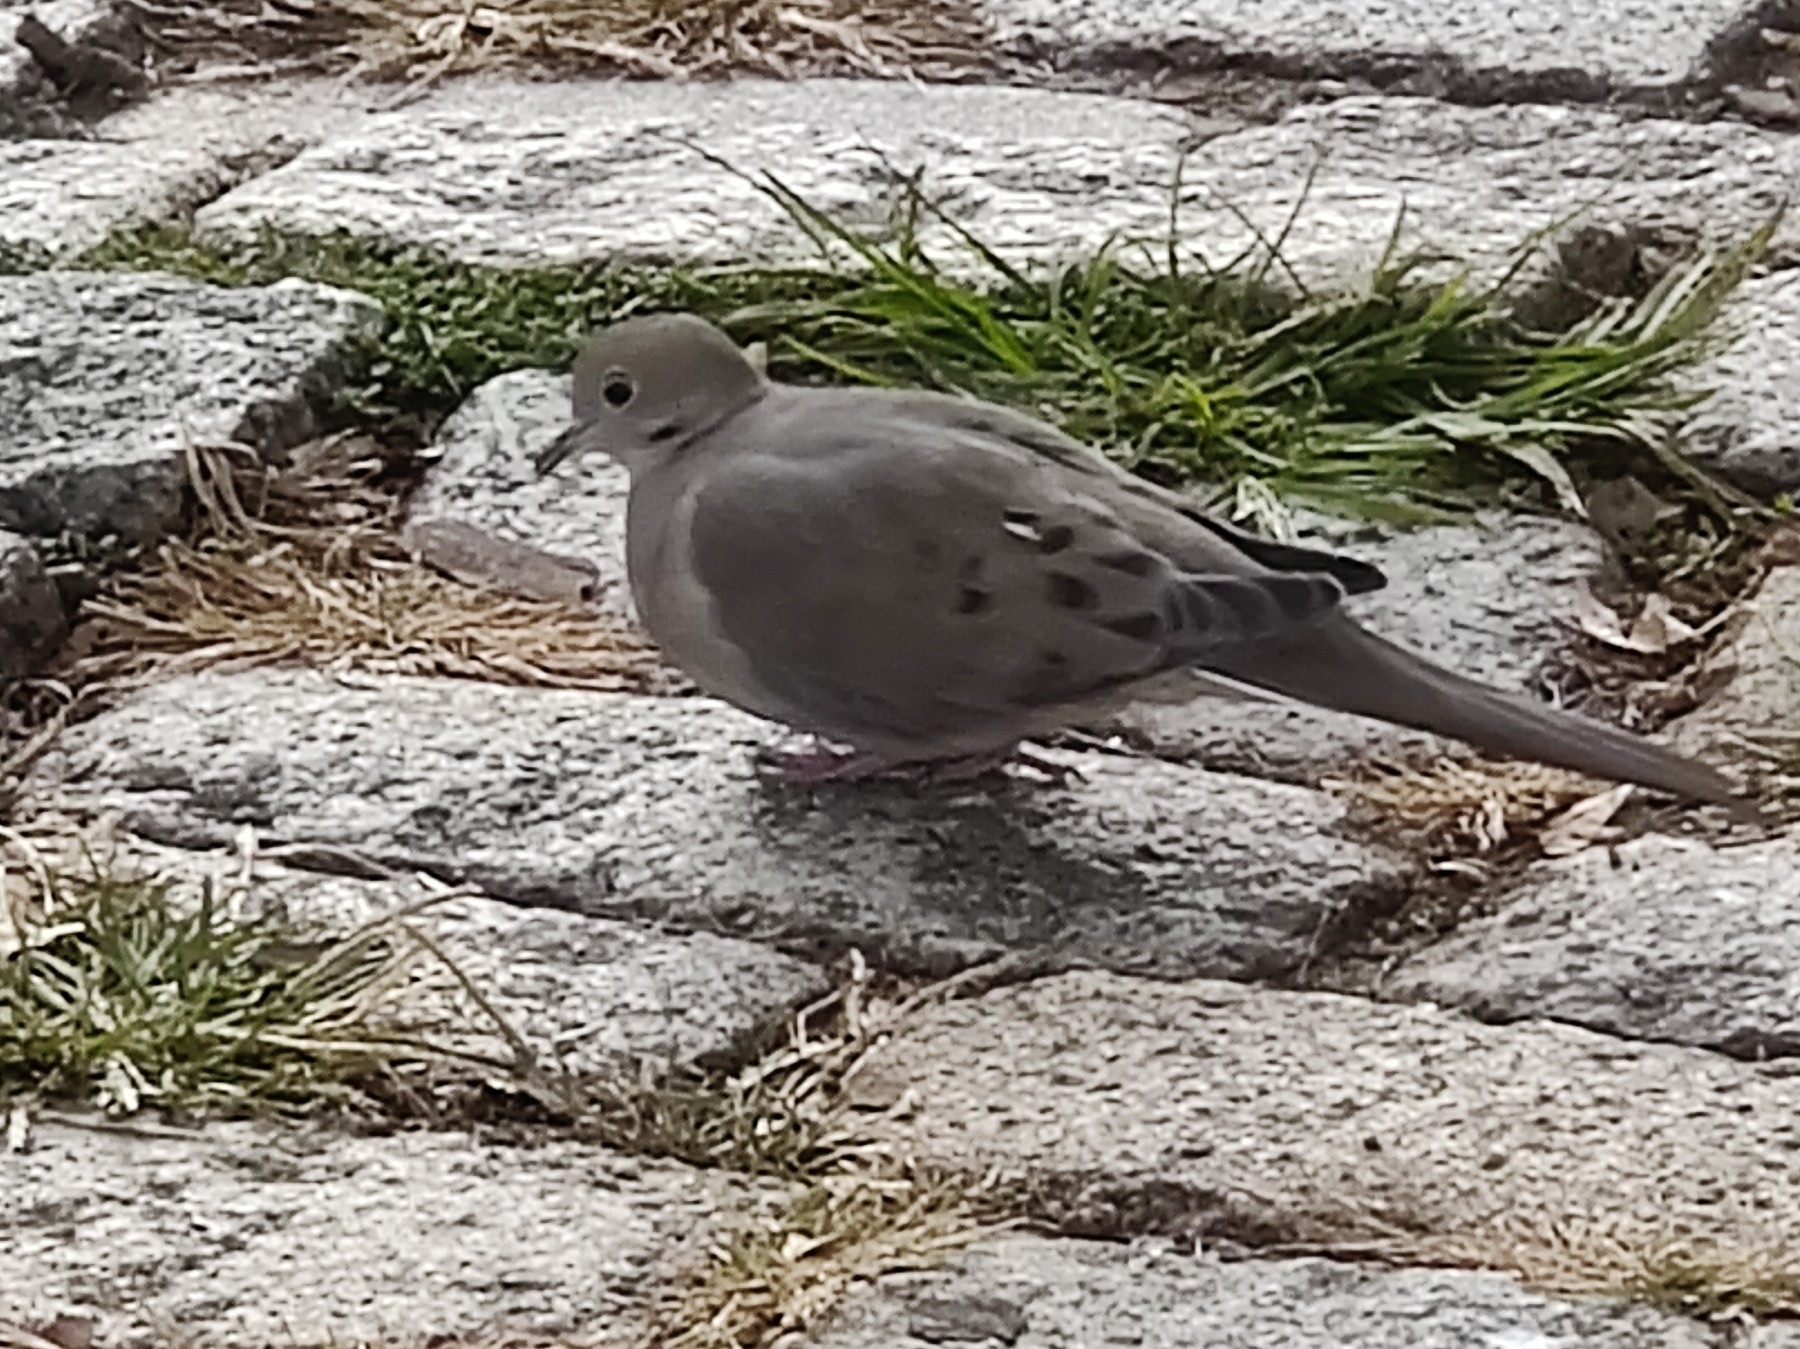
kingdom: Animalia
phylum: Chordata
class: Aves
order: Columbiformes
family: Columbidae
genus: Zenaida
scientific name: Zenaida macroura
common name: Mourning dove
